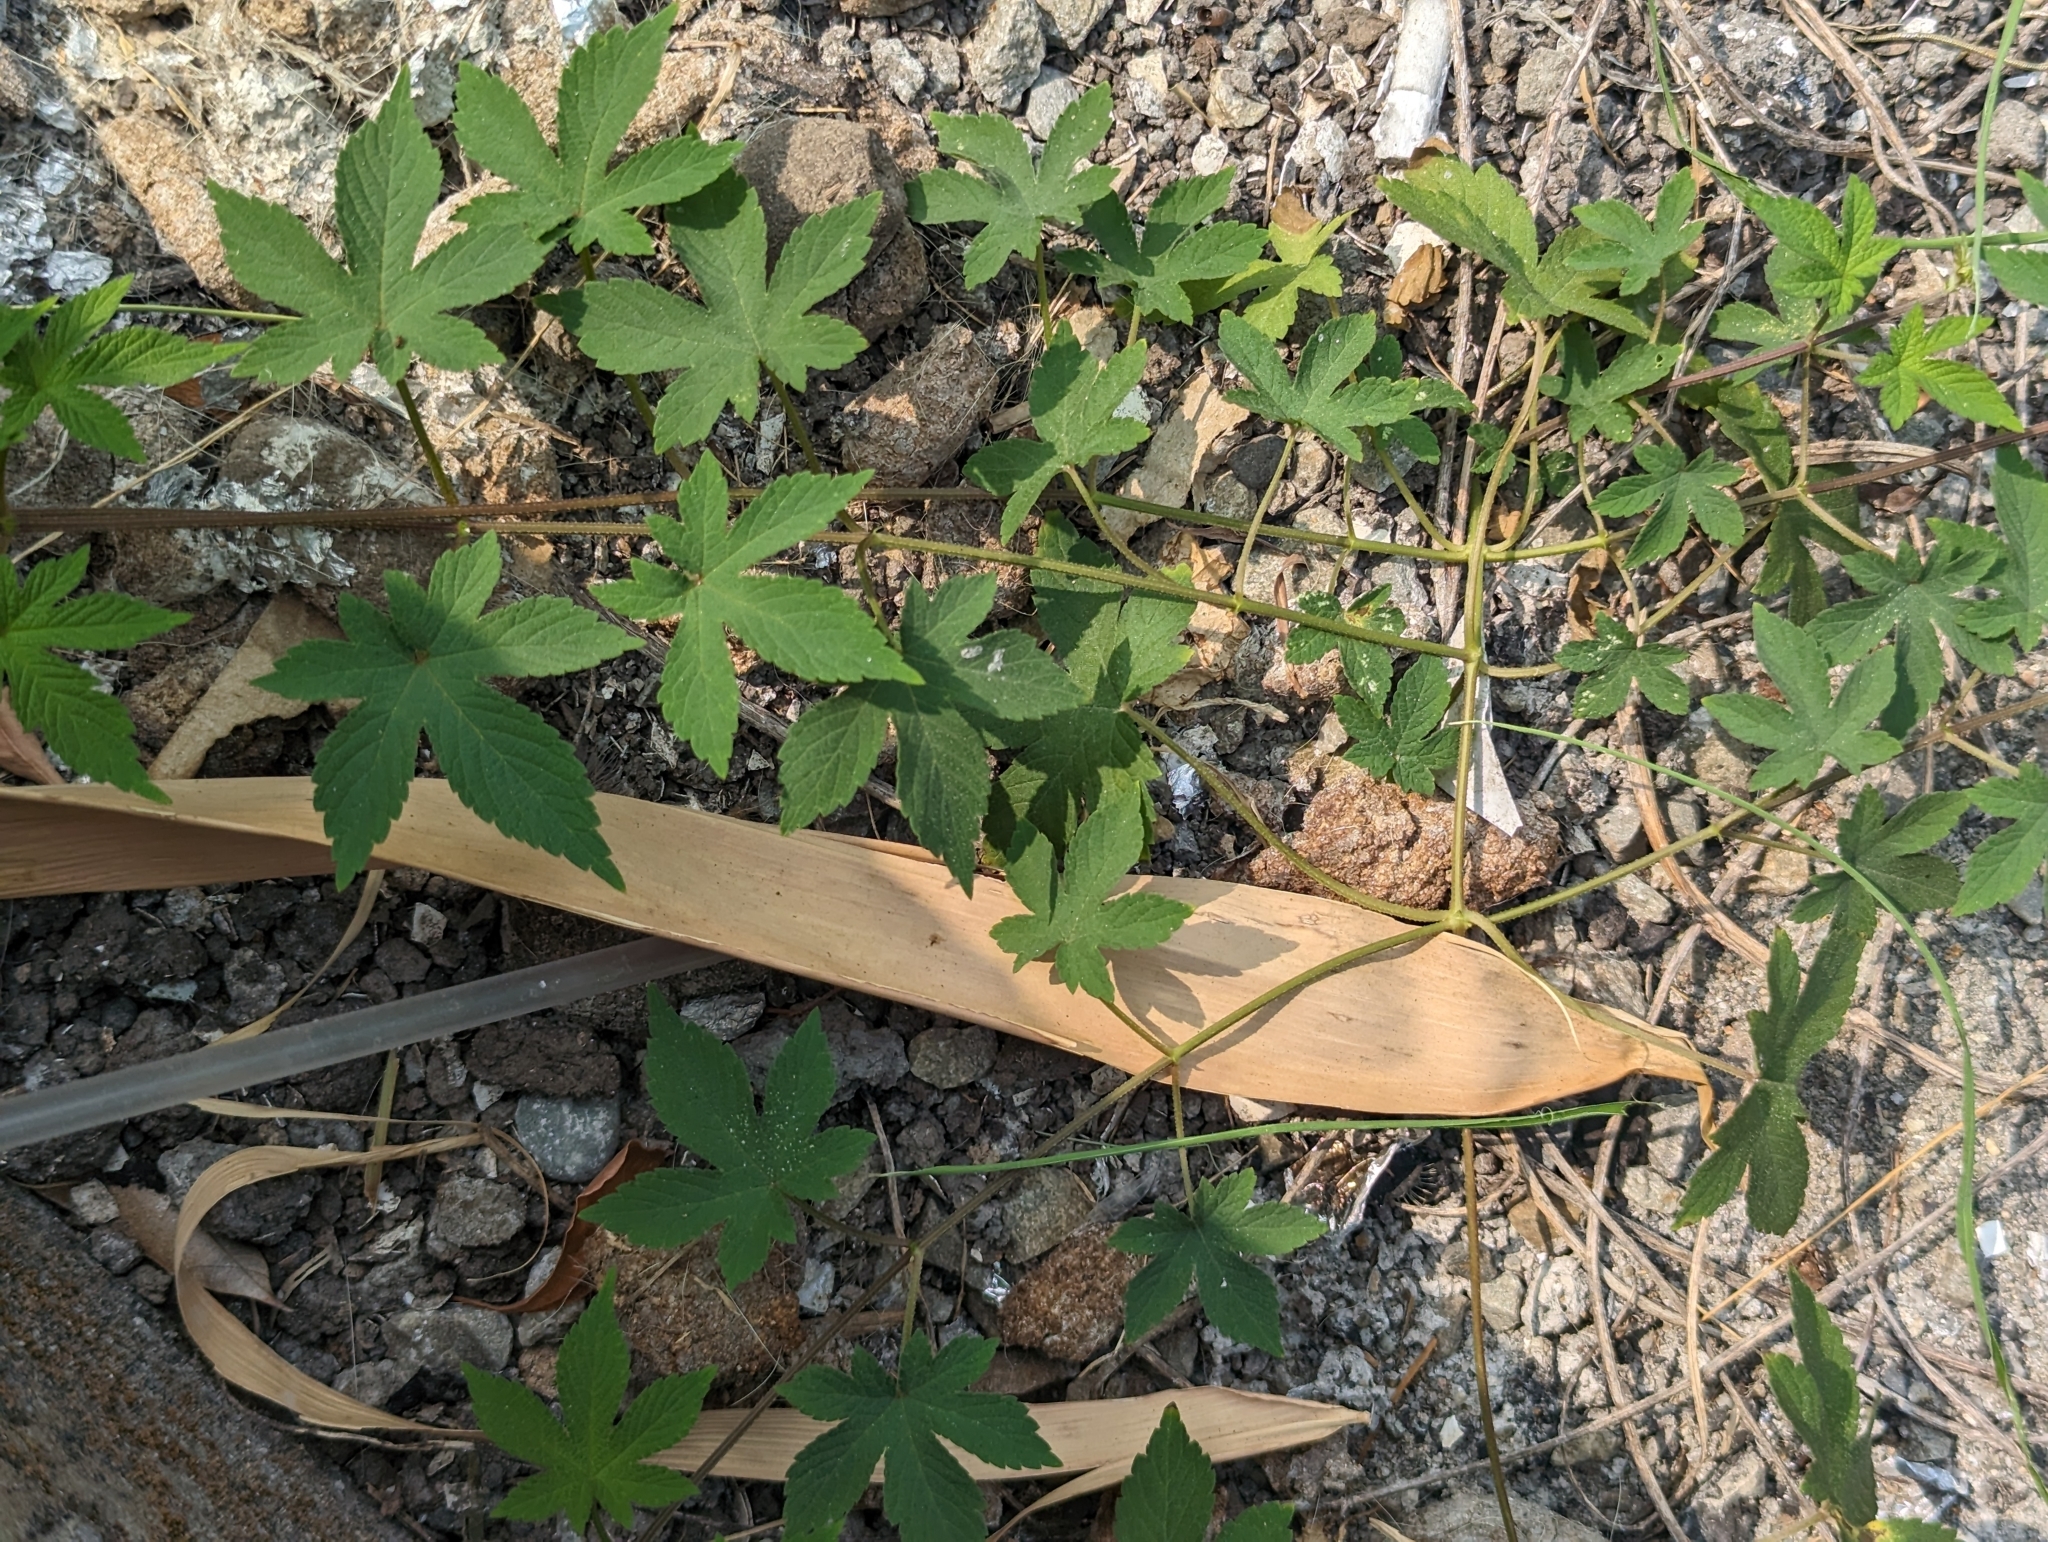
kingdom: Plantae
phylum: Tracheophyta
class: Magnoliopsida
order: Rosales
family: Cannabaceae
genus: Humulus
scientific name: Humulus scandens
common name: Japanese hop
